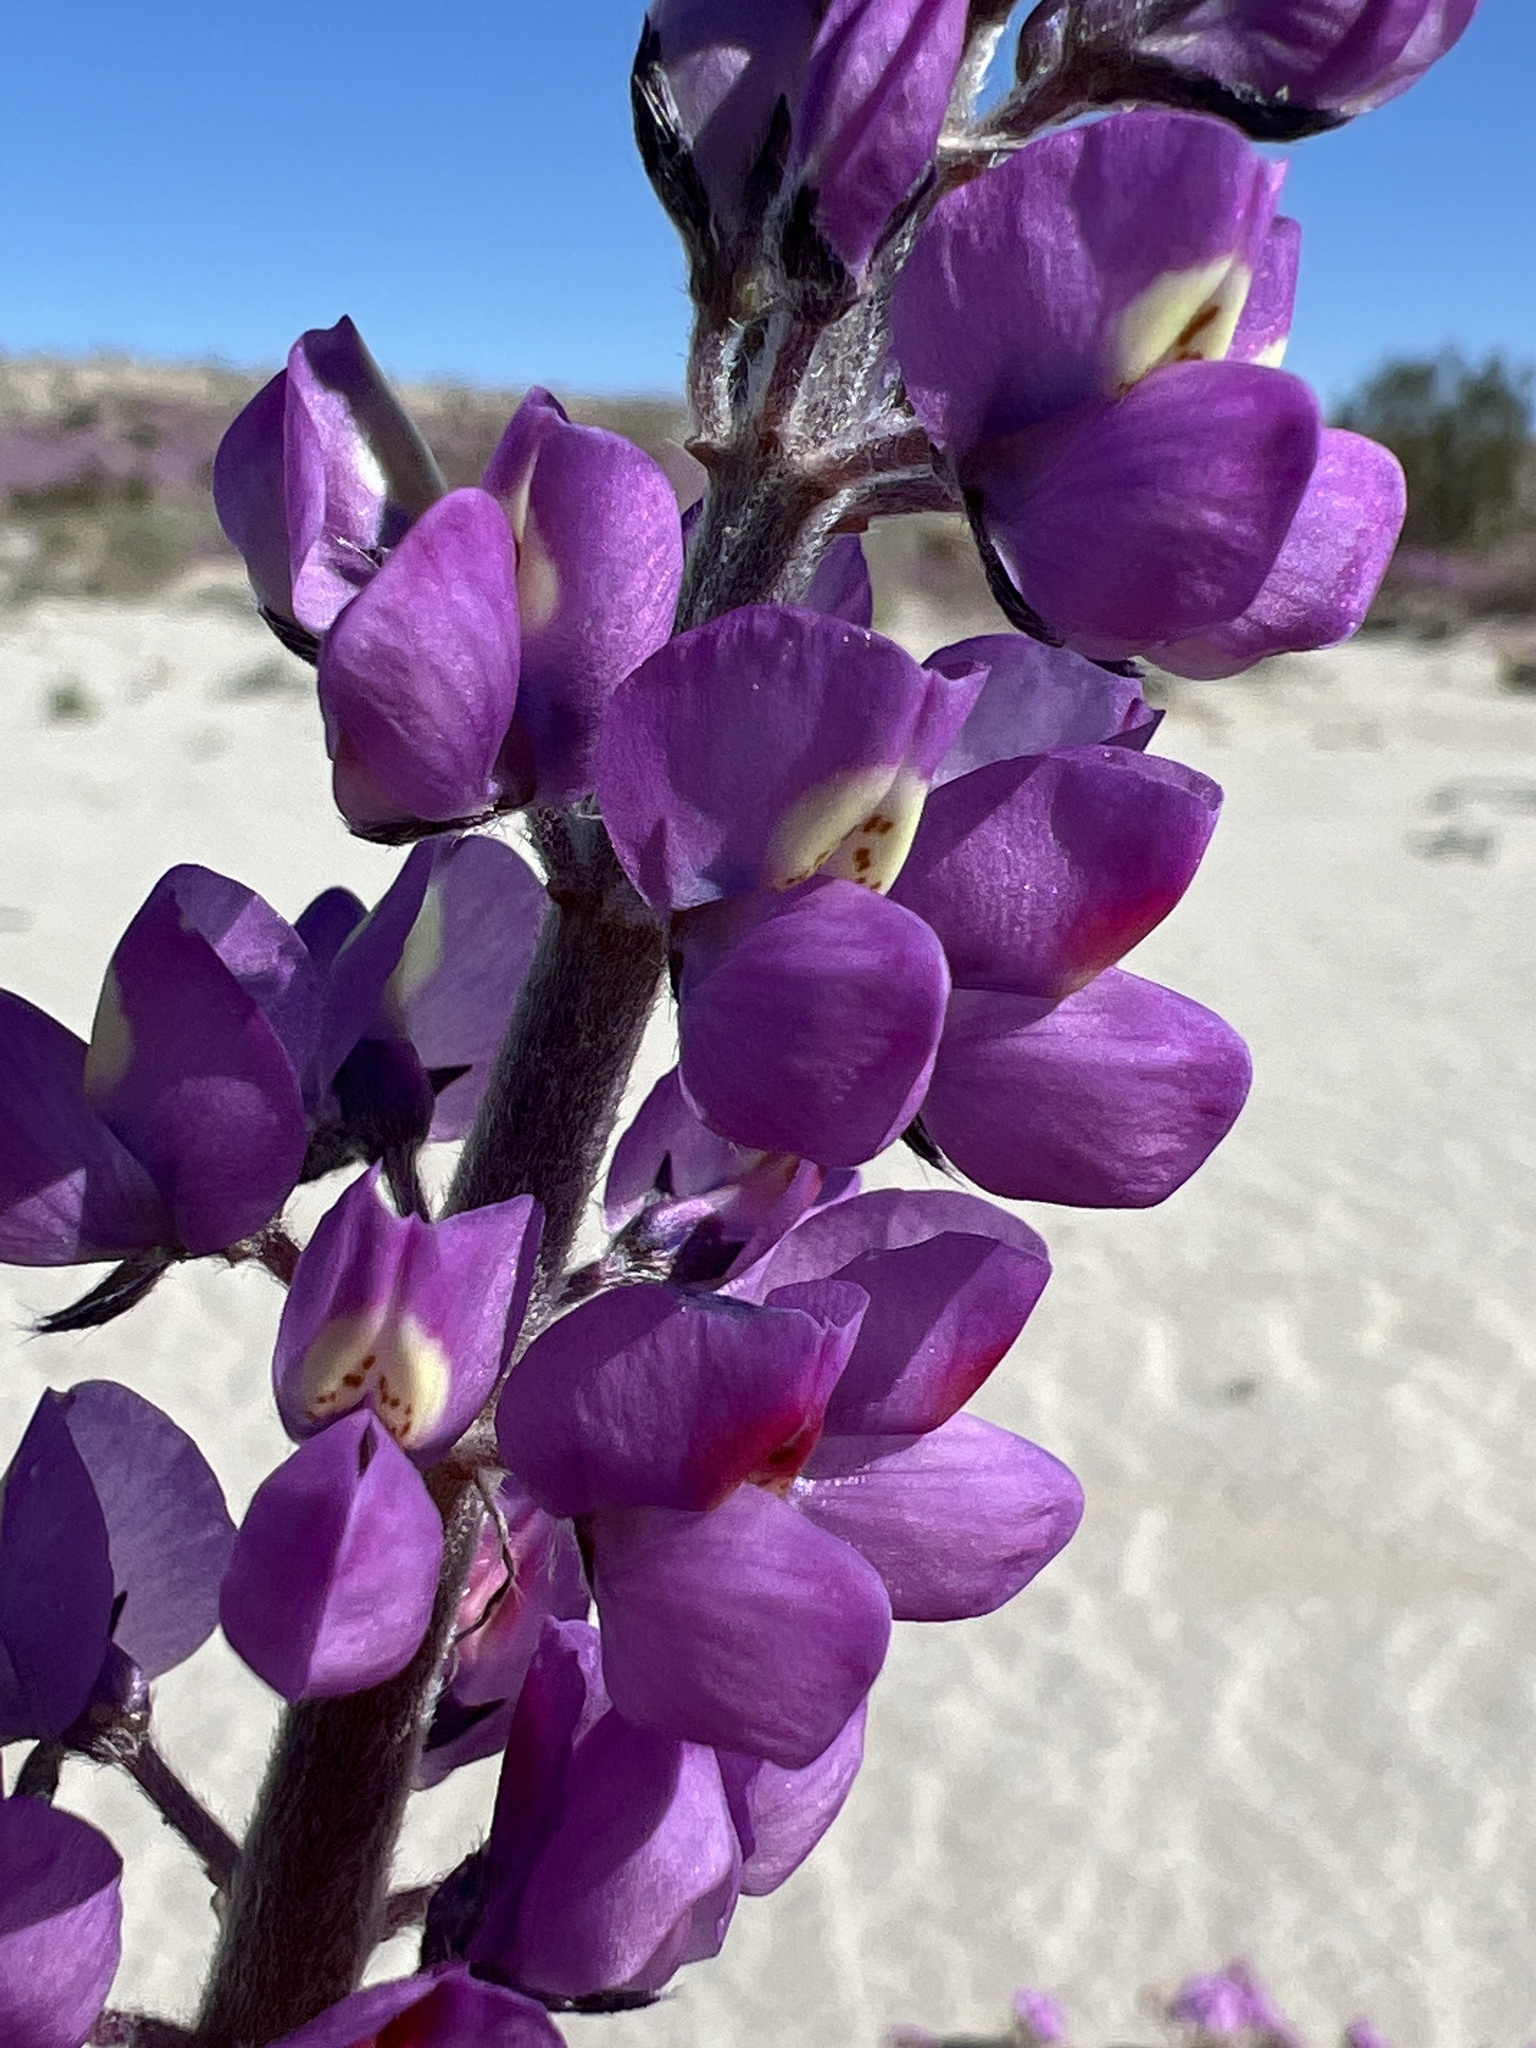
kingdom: Plantae
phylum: Tracheophyta
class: Magnoliopsida
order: Fabales
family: Fabaceae
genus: Lupinus
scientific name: Lupinus arizonicus
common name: Arizona lupine
